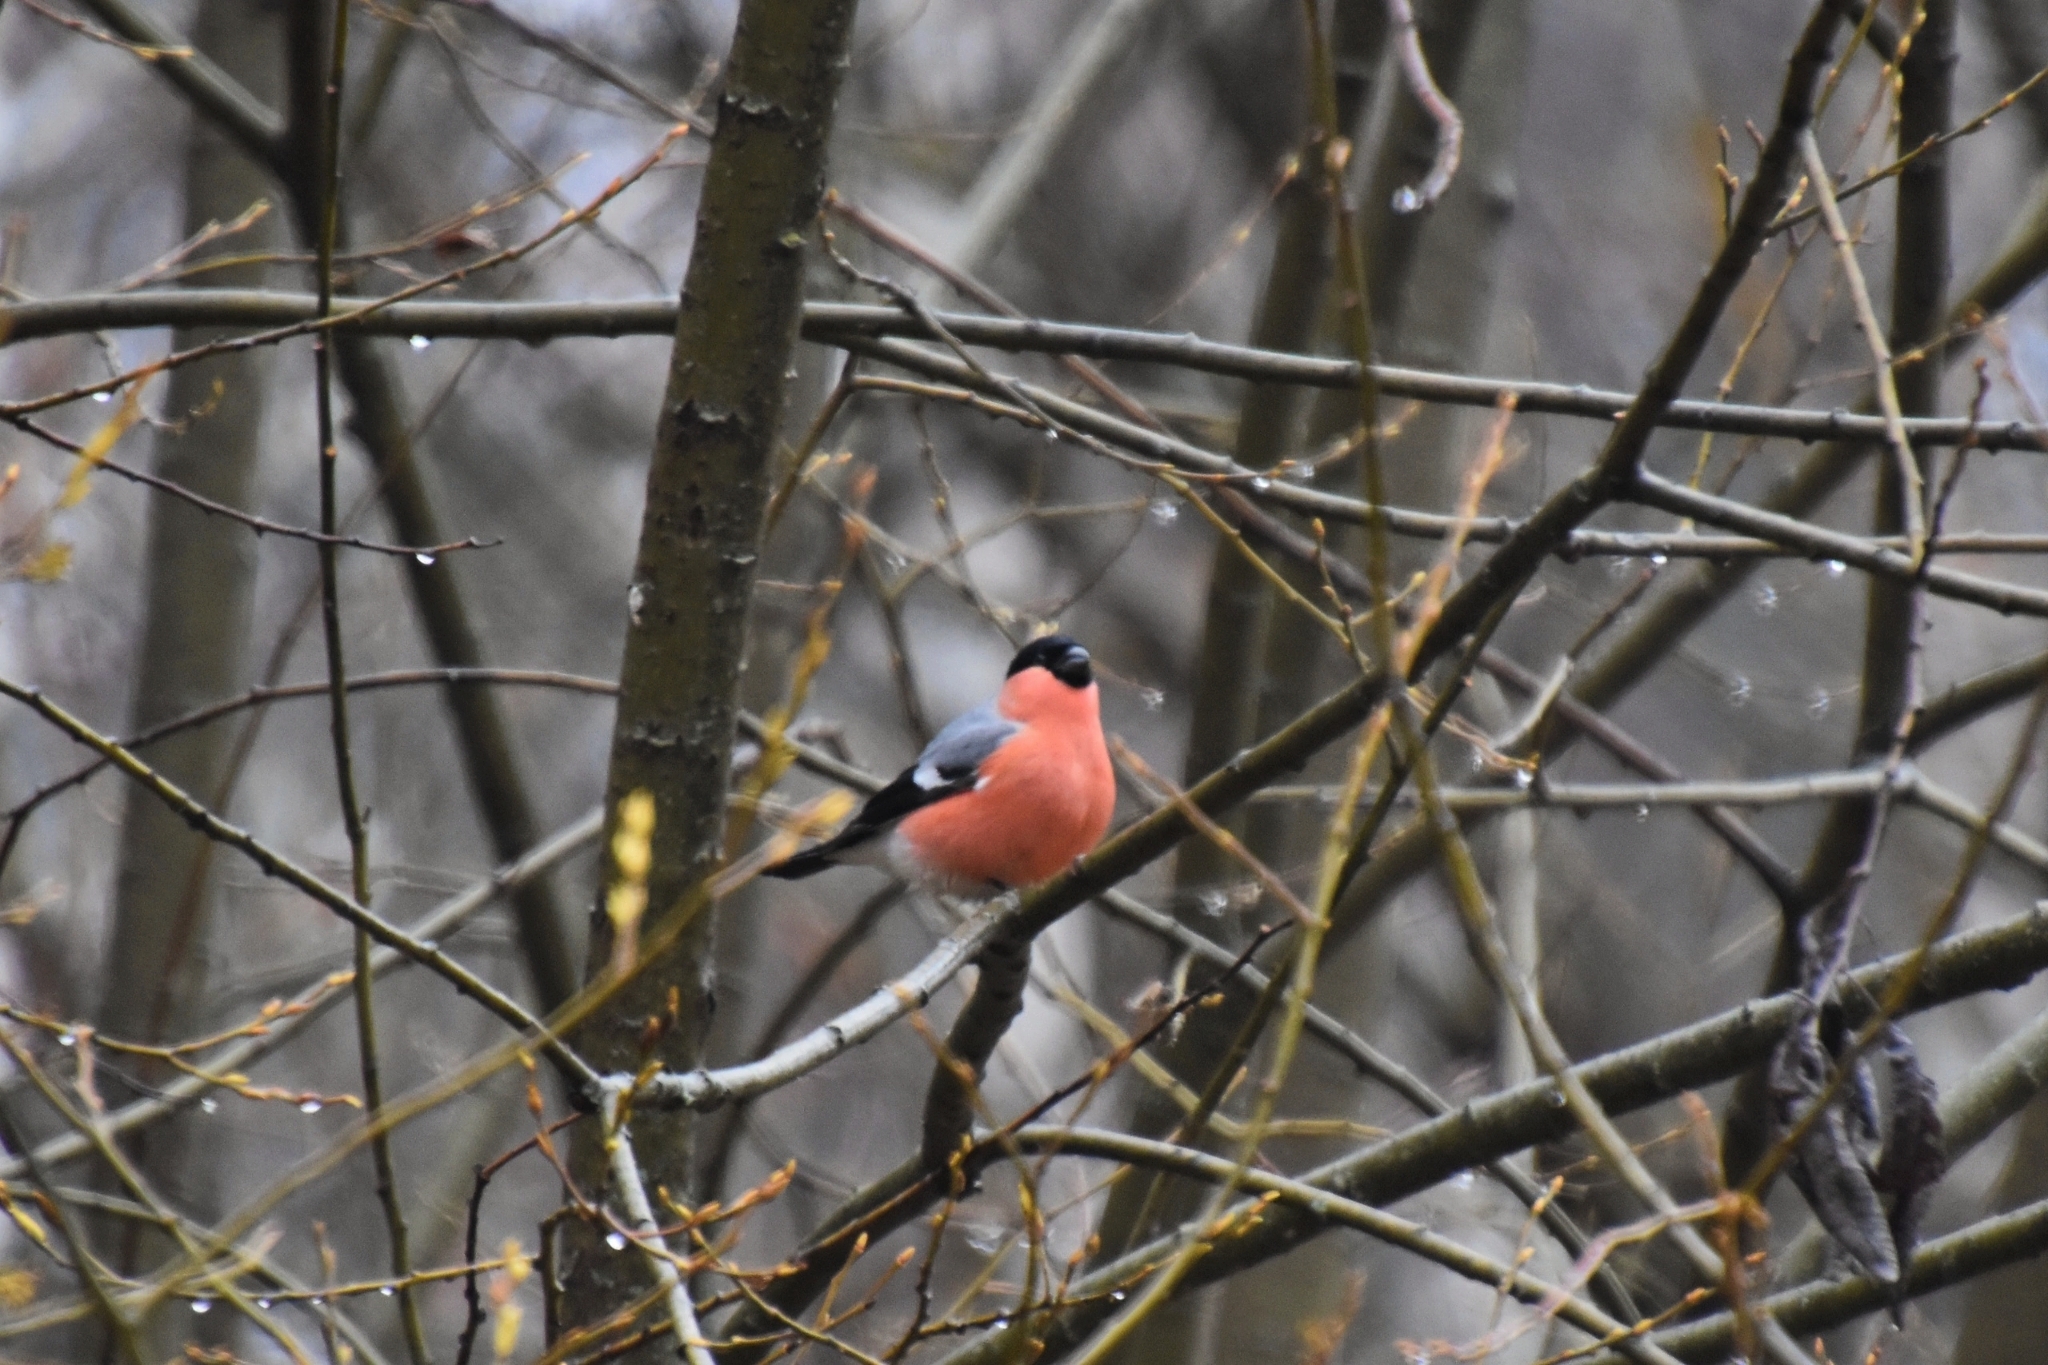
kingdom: Animalia
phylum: Chordata
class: Aves
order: Passeriformes
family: Fringillidae
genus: Pyrrhula
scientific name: Pyrrhula pyrrhula
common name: Eurasian bullfinch
